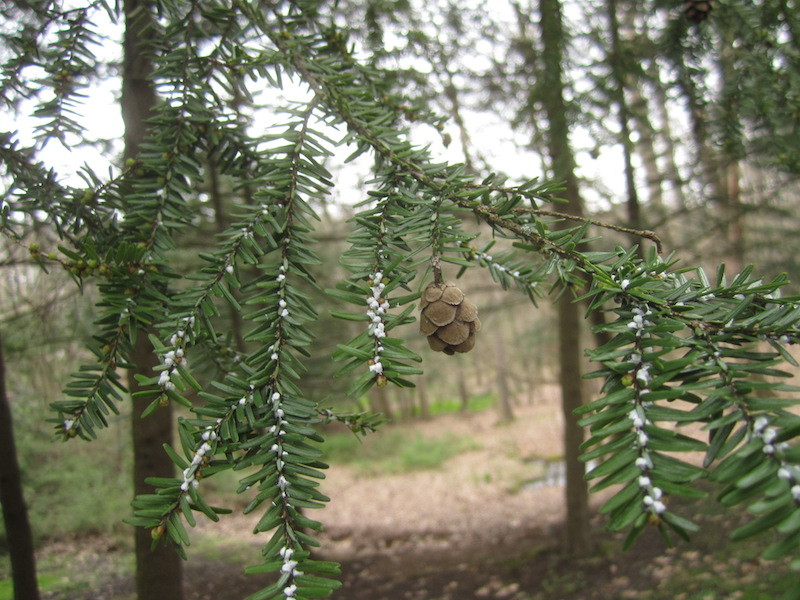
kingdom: Animalia
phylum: Arthropoda
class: Insecta
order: Hemiptera
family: Adelgidae
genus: Adelges
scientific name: Adelges tsugae
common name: Hemlock woolly adelgid
